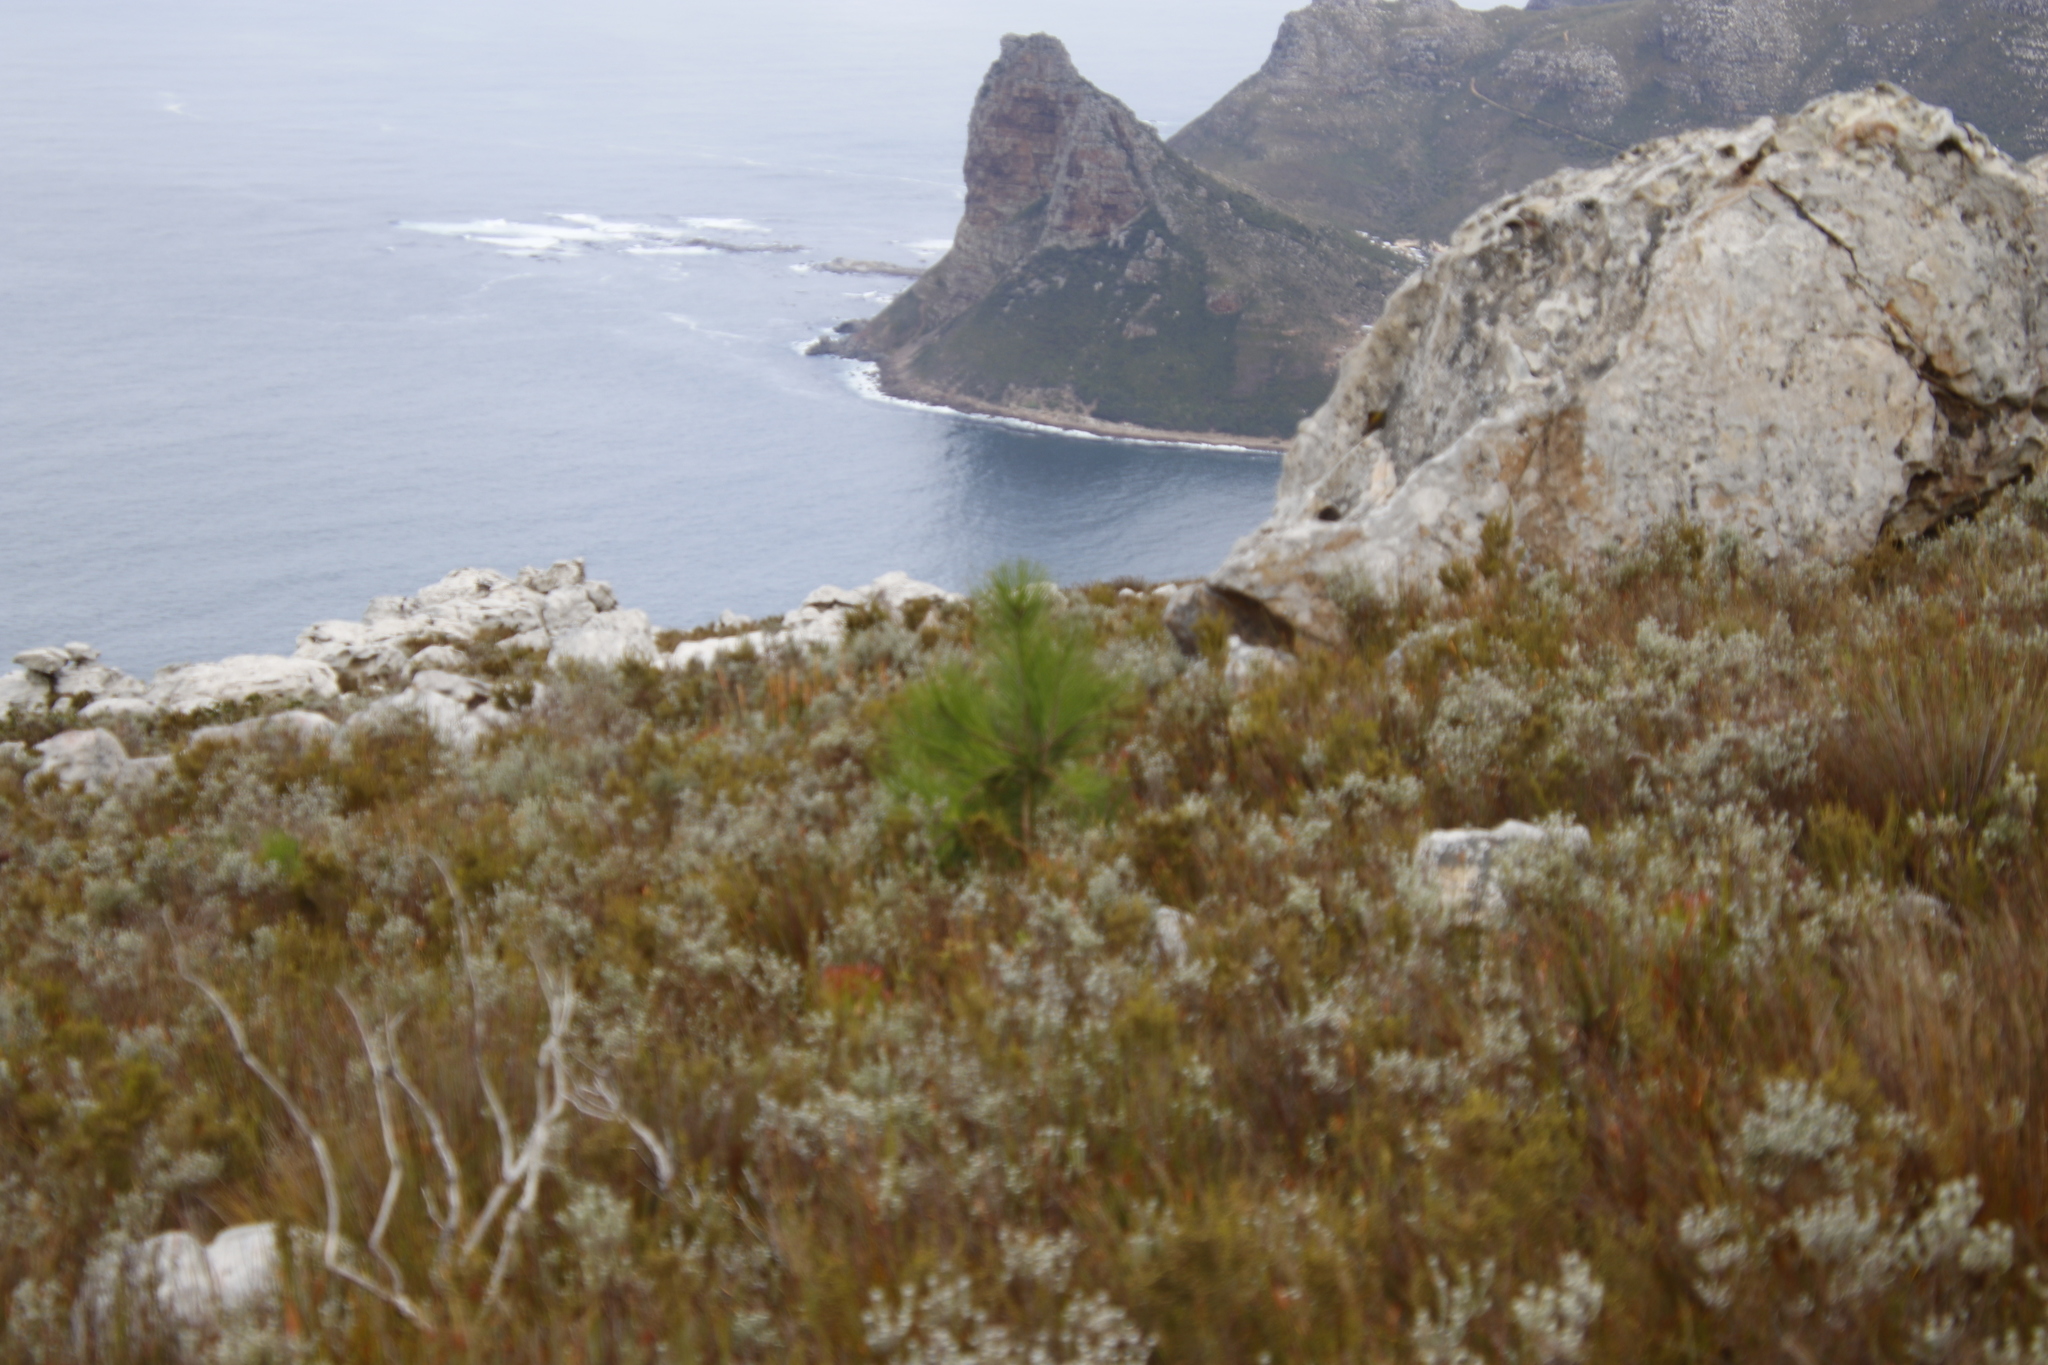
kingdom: Plantae
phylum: Tracheophyta
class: Pinopsida
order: Pinales
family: Pinaceae
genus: Pinus
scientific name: Pinus pinaster
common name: Maritime pine
